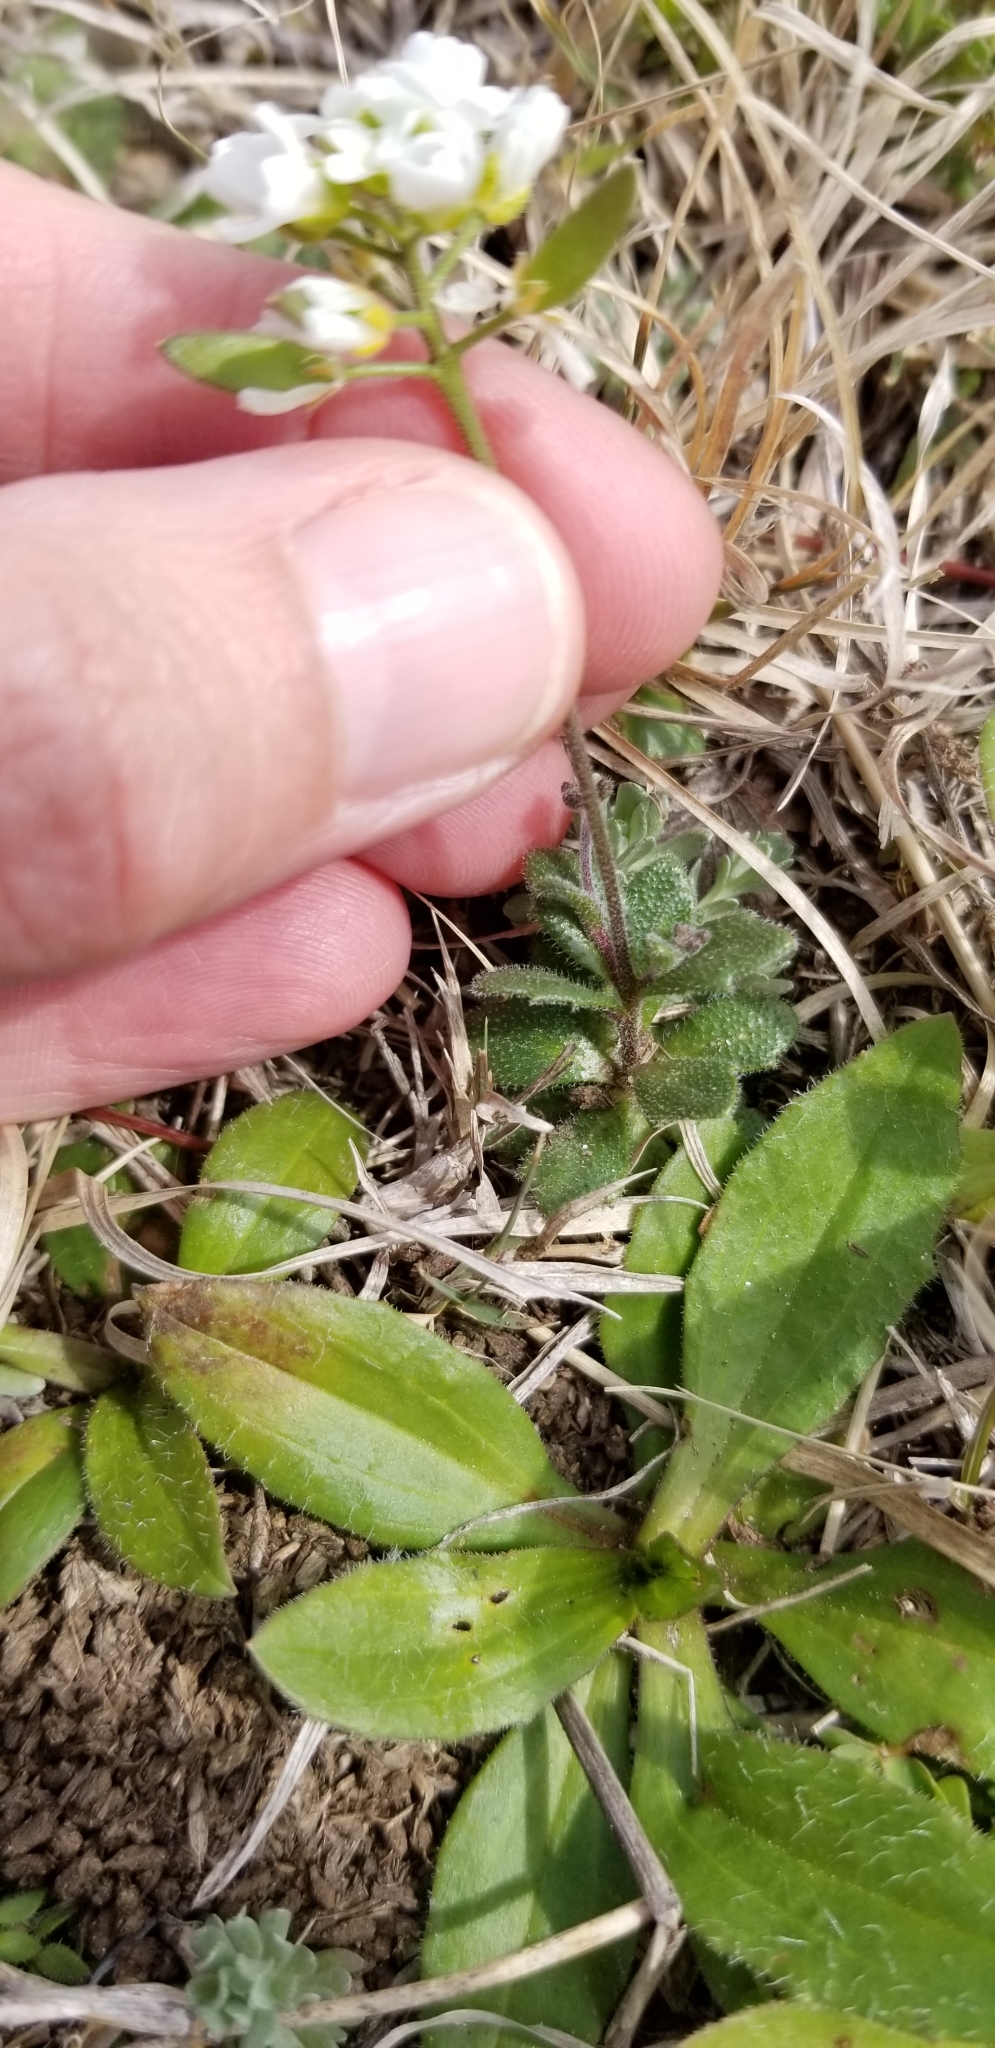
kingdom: Plantae
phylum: Tracheophyta
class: Magnoliopsida
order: Brassicales
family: Brassicaceae
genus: Tomostima
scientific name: Tomostima cuneifolia
